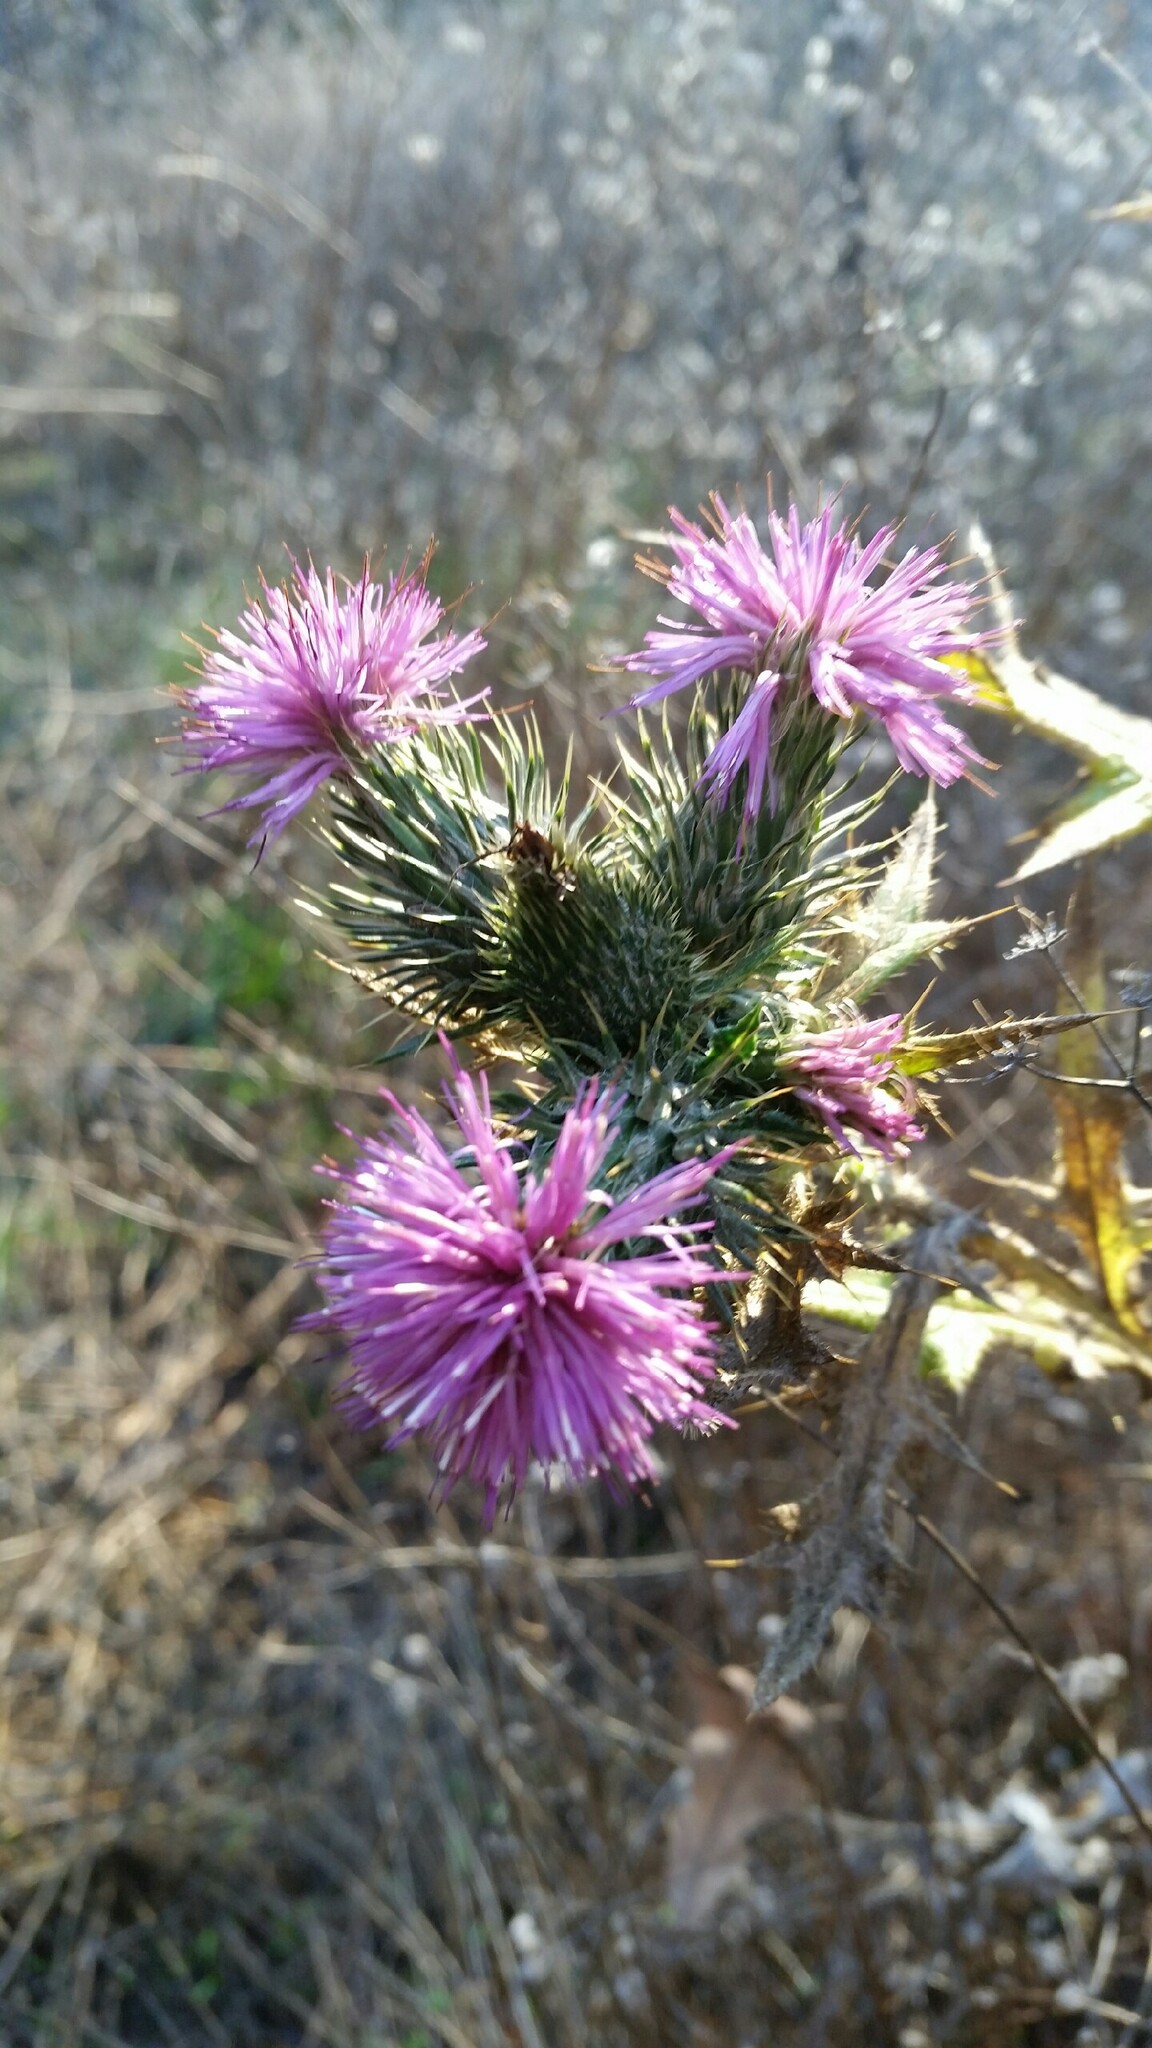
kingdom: Plantae
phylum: Tracheophyta
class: Magnoliopsida
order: Asterales
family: Asteraceae
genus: Cirsium
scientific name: Cirsium vulgare
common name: Bull thistle
